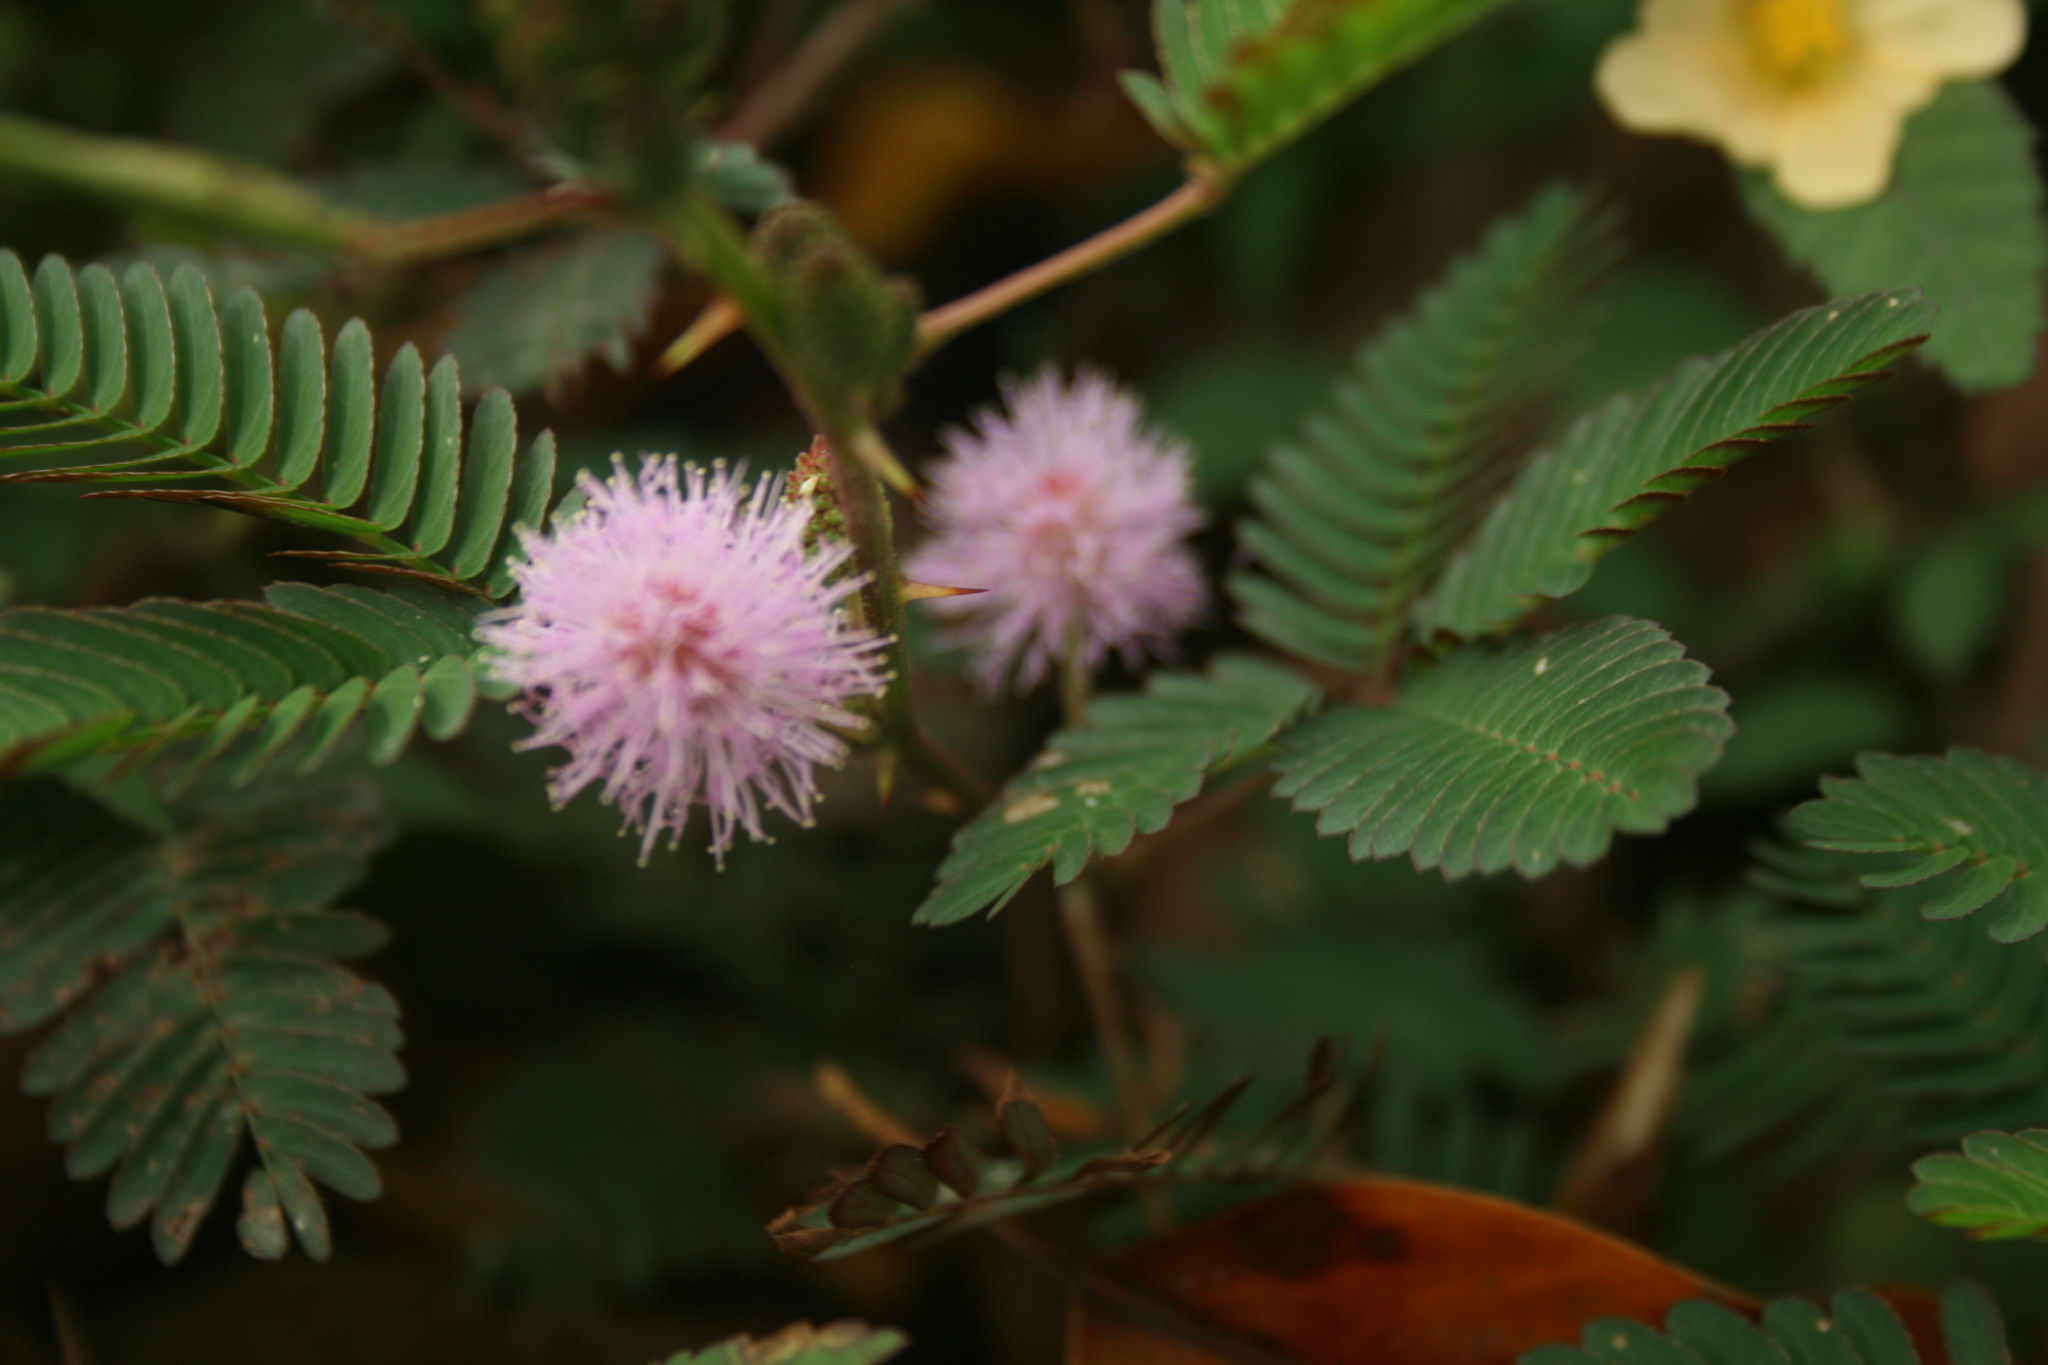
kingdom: Plantae
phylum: Tracheophyta
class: Magnoliopsida
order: Fabales
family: Fabaceae
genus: Mimosa
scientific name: Mimosa pudica
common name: Sensitive plant
